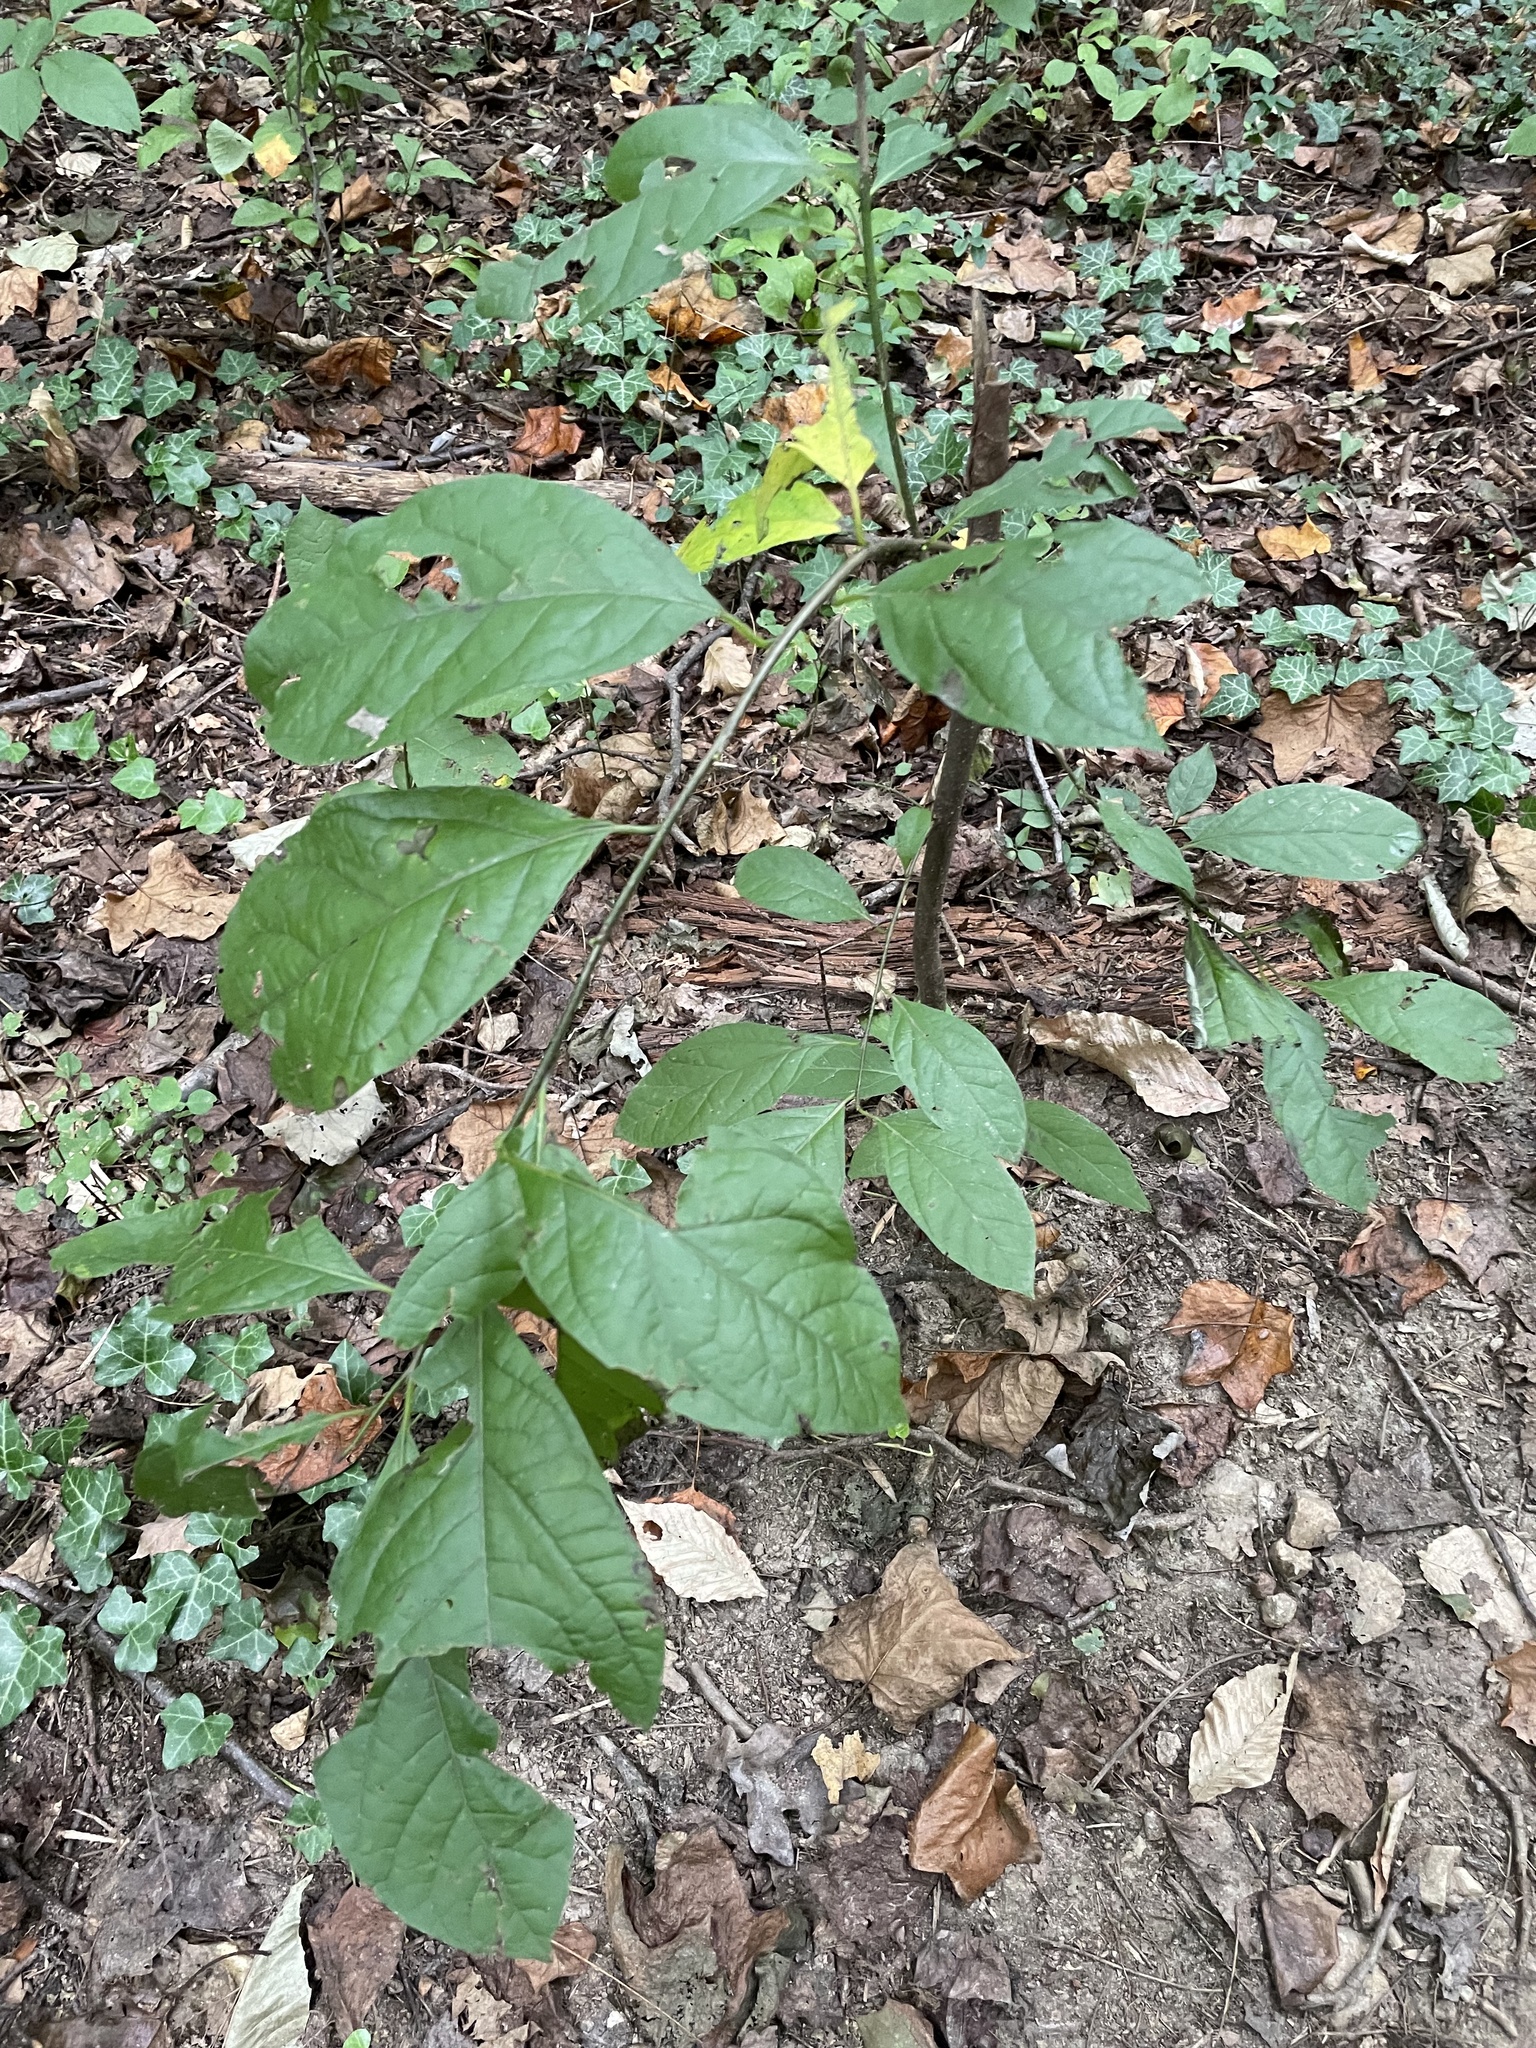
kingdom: Plantae
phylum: Tracheophyta
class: Magnoliopsida
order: Laurales
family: Lauraceae
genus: Lindera
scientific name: Lindera benzoin
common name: Spicebush
